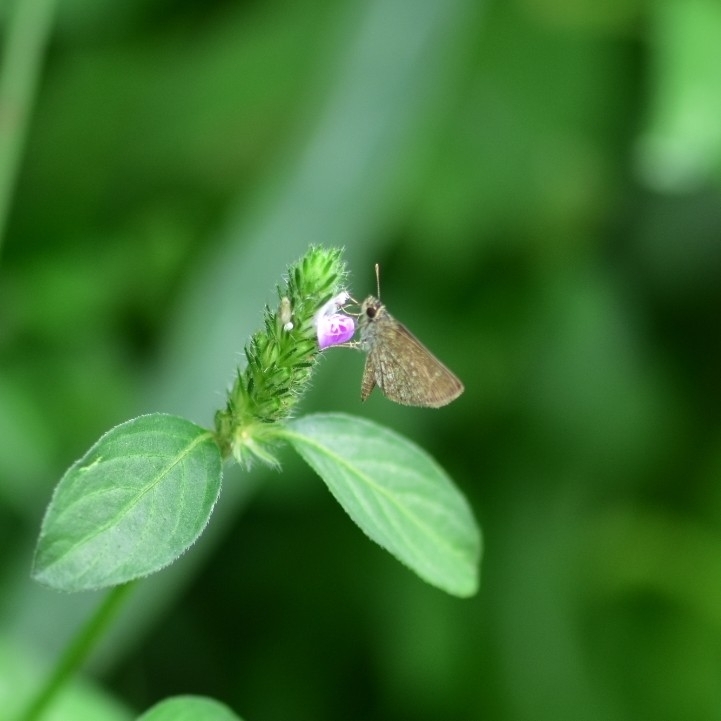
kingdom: Animalia
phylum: Arthropoda
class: Insecta
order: Lepidoptera
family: Hesperiidae
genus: Aeromachus
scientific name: Aeromachus pygmaeus
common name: Pygmy scrub hopper
